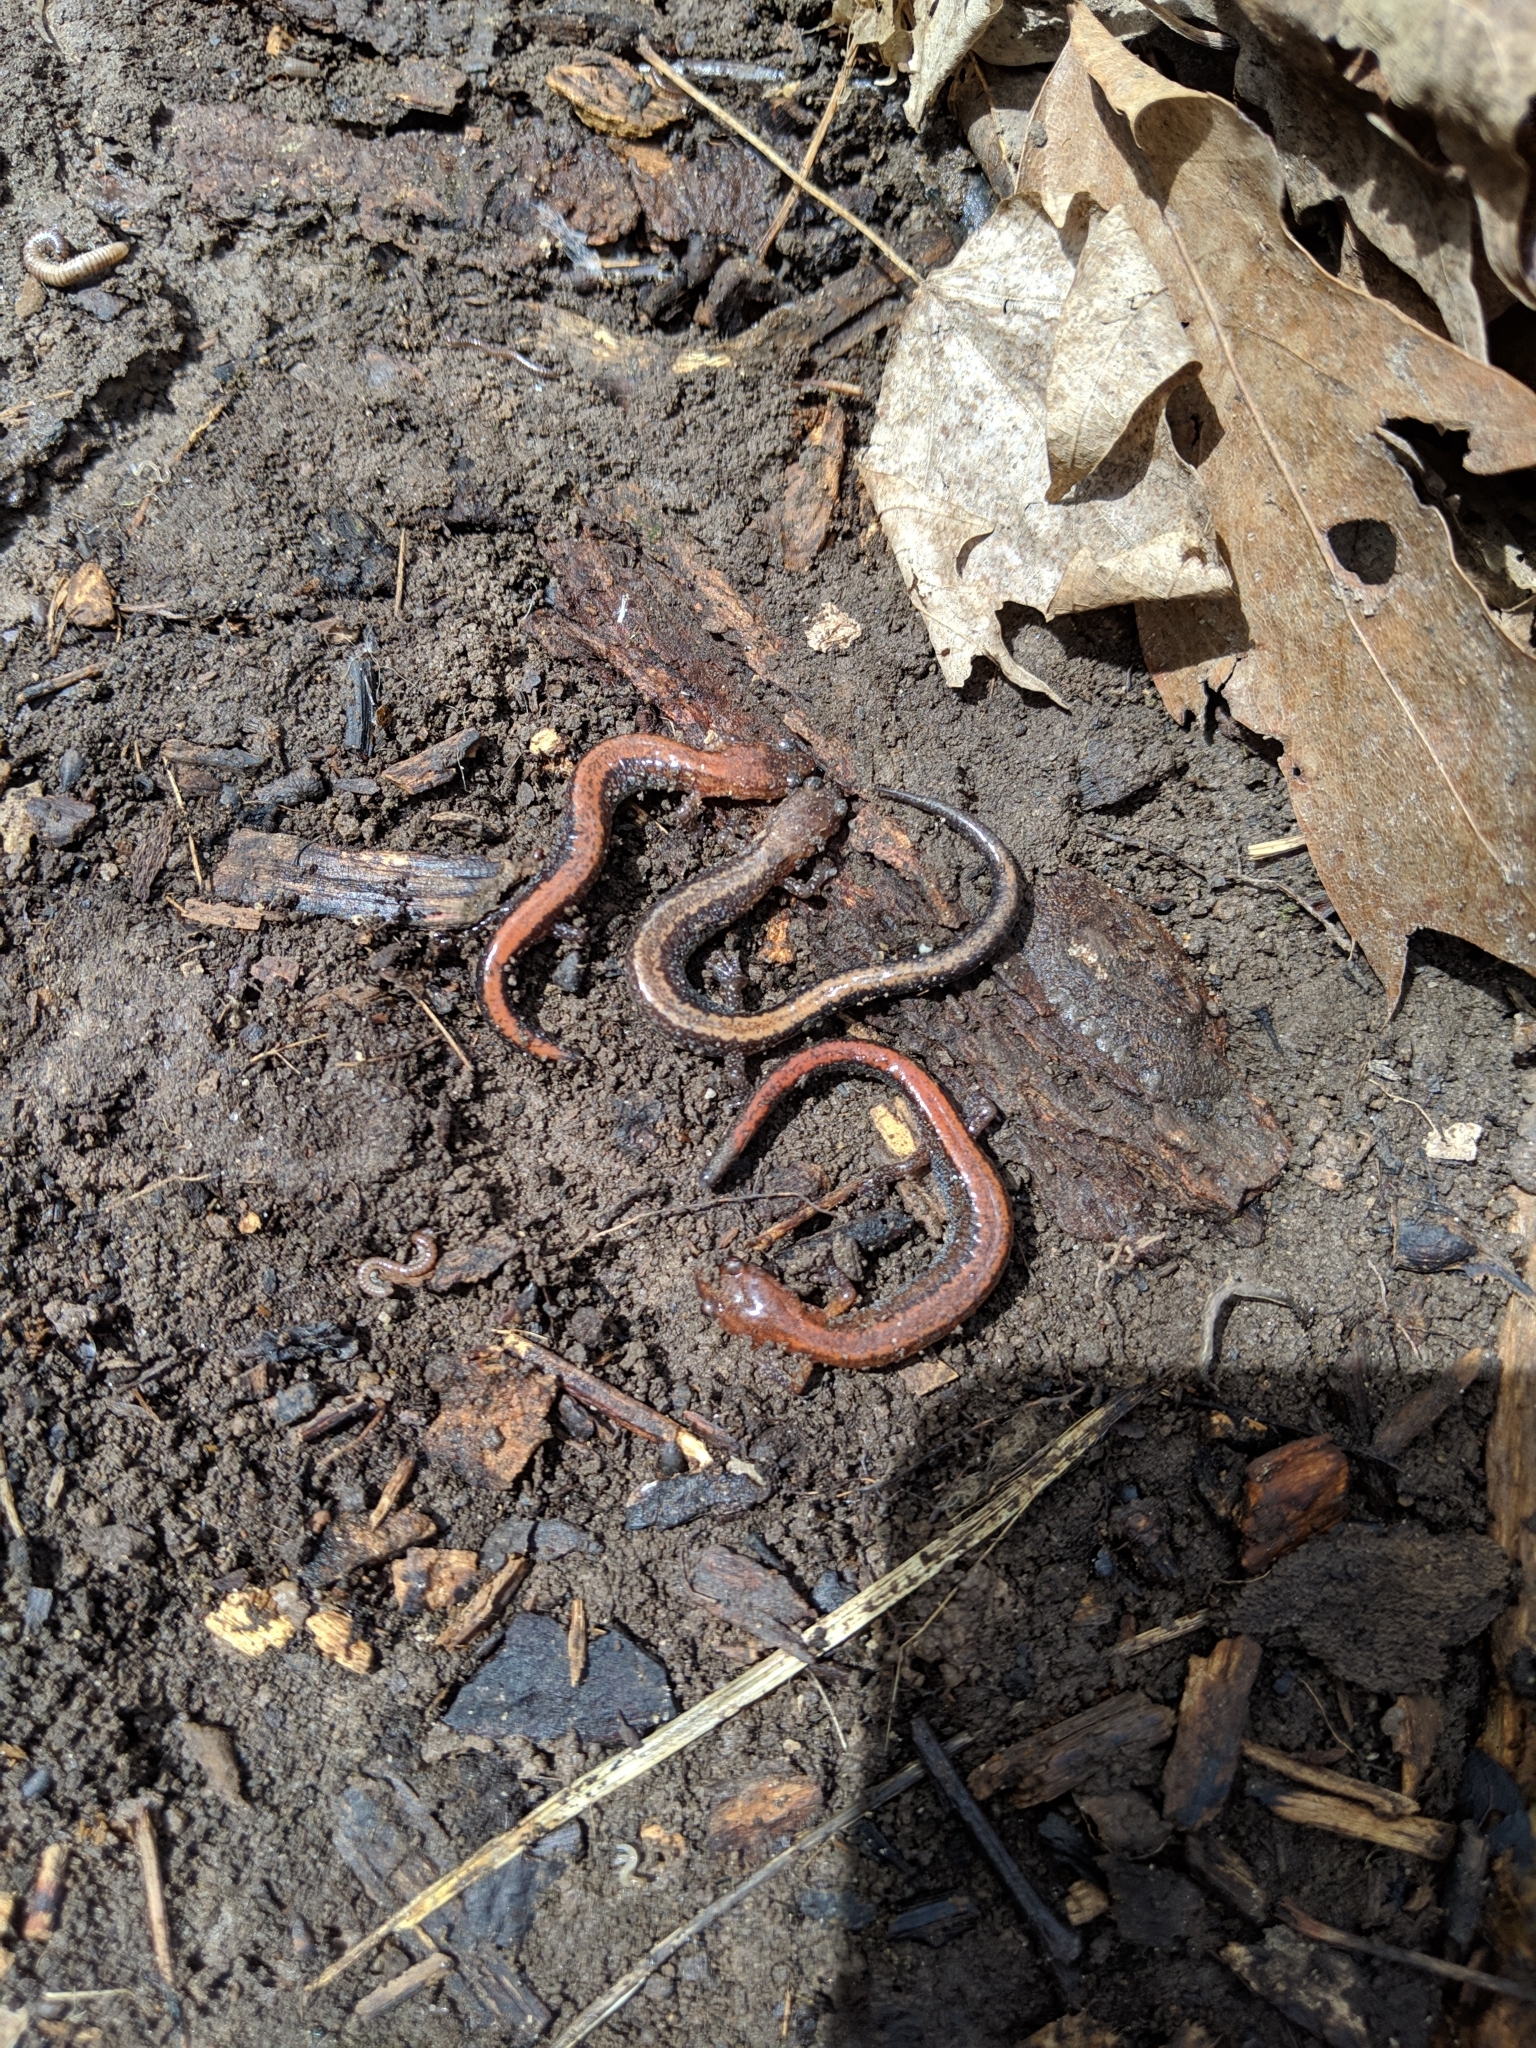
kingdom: Animalia
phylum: Chordata
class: Amphibia
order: Caudata
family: Plethodontidae
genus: Plethodon
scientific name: Plethodon cinereus
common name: Redback salamander
